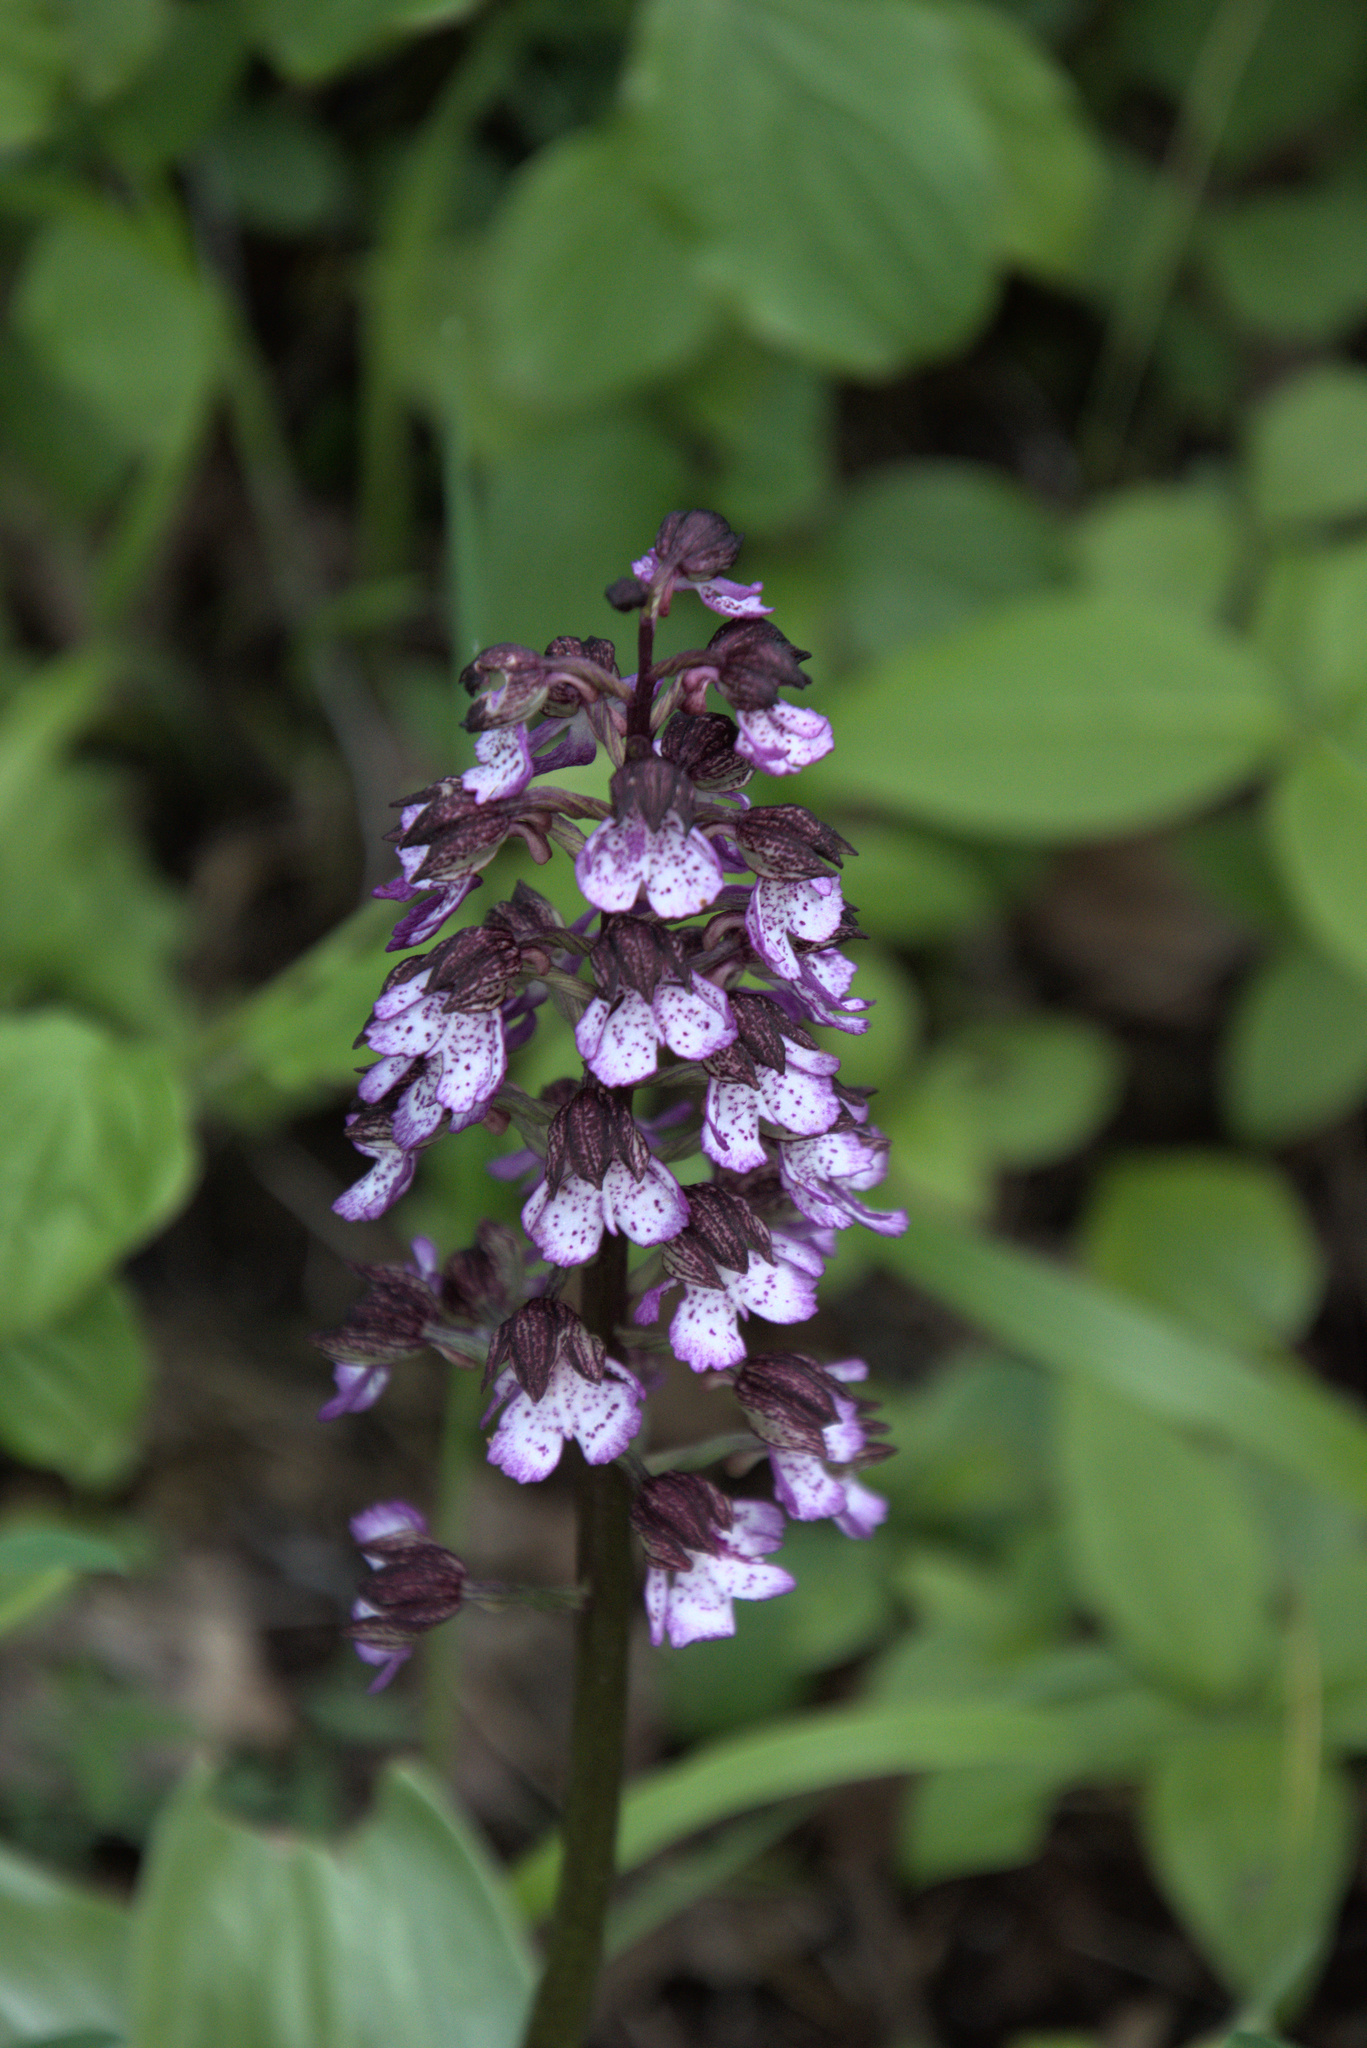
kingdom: Plantae
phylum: Tracheophyta
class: Liliopsida
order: Asparagales
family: Orchidaceae
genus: Orchis
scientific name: Orchis purpurea
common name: Lady orchid
